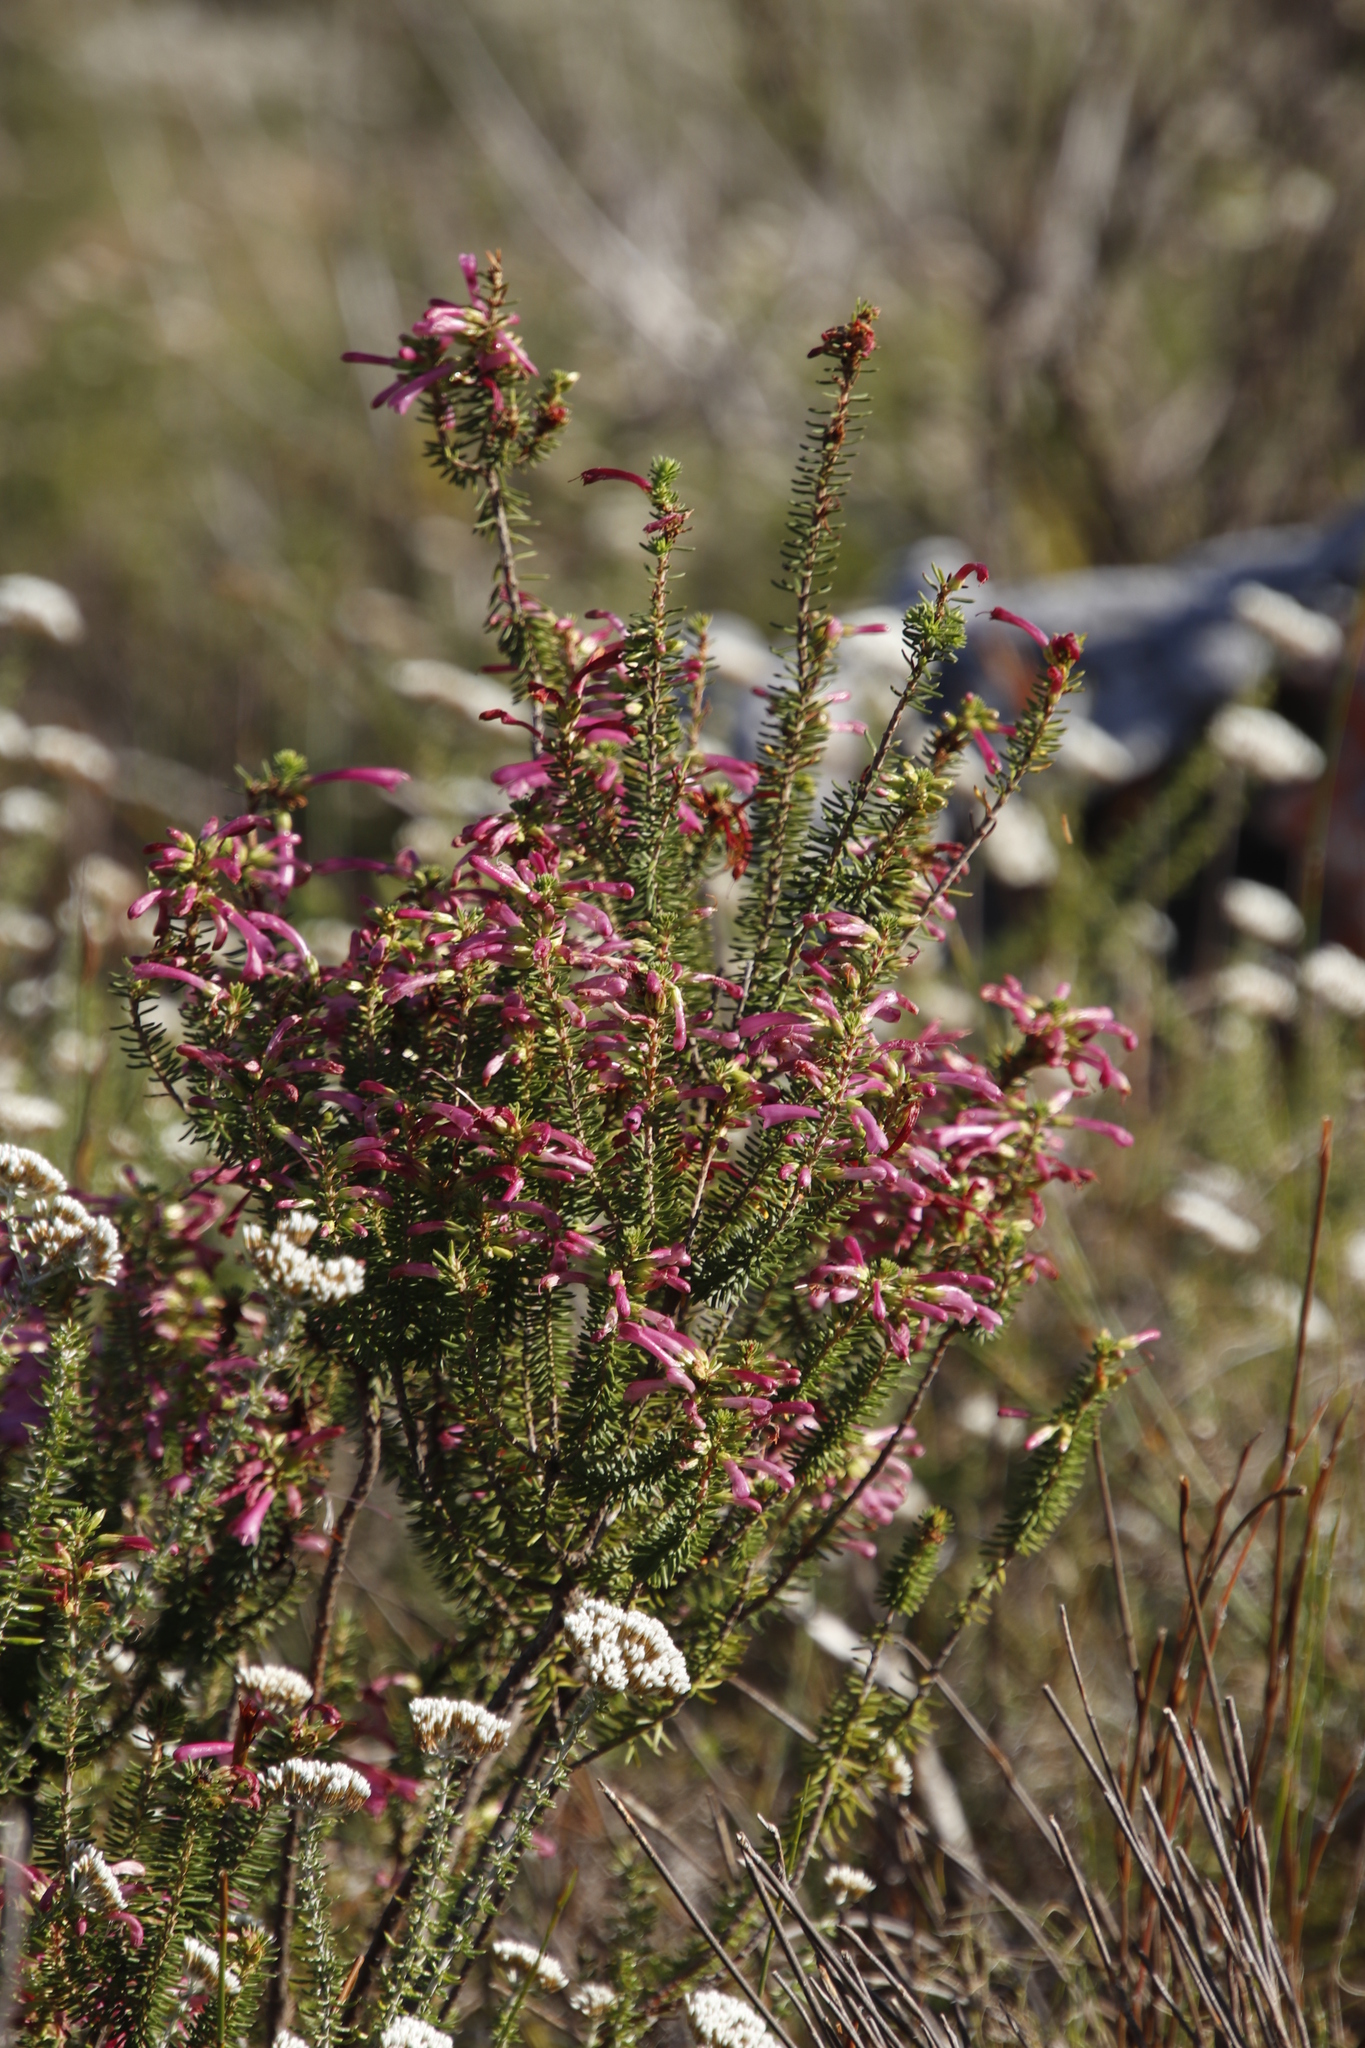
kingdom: Plantae
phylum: Tracheophyta
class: Magnoliopsida
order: Ericales
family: Ericaceae
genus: Erica
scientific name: Erica abietina
